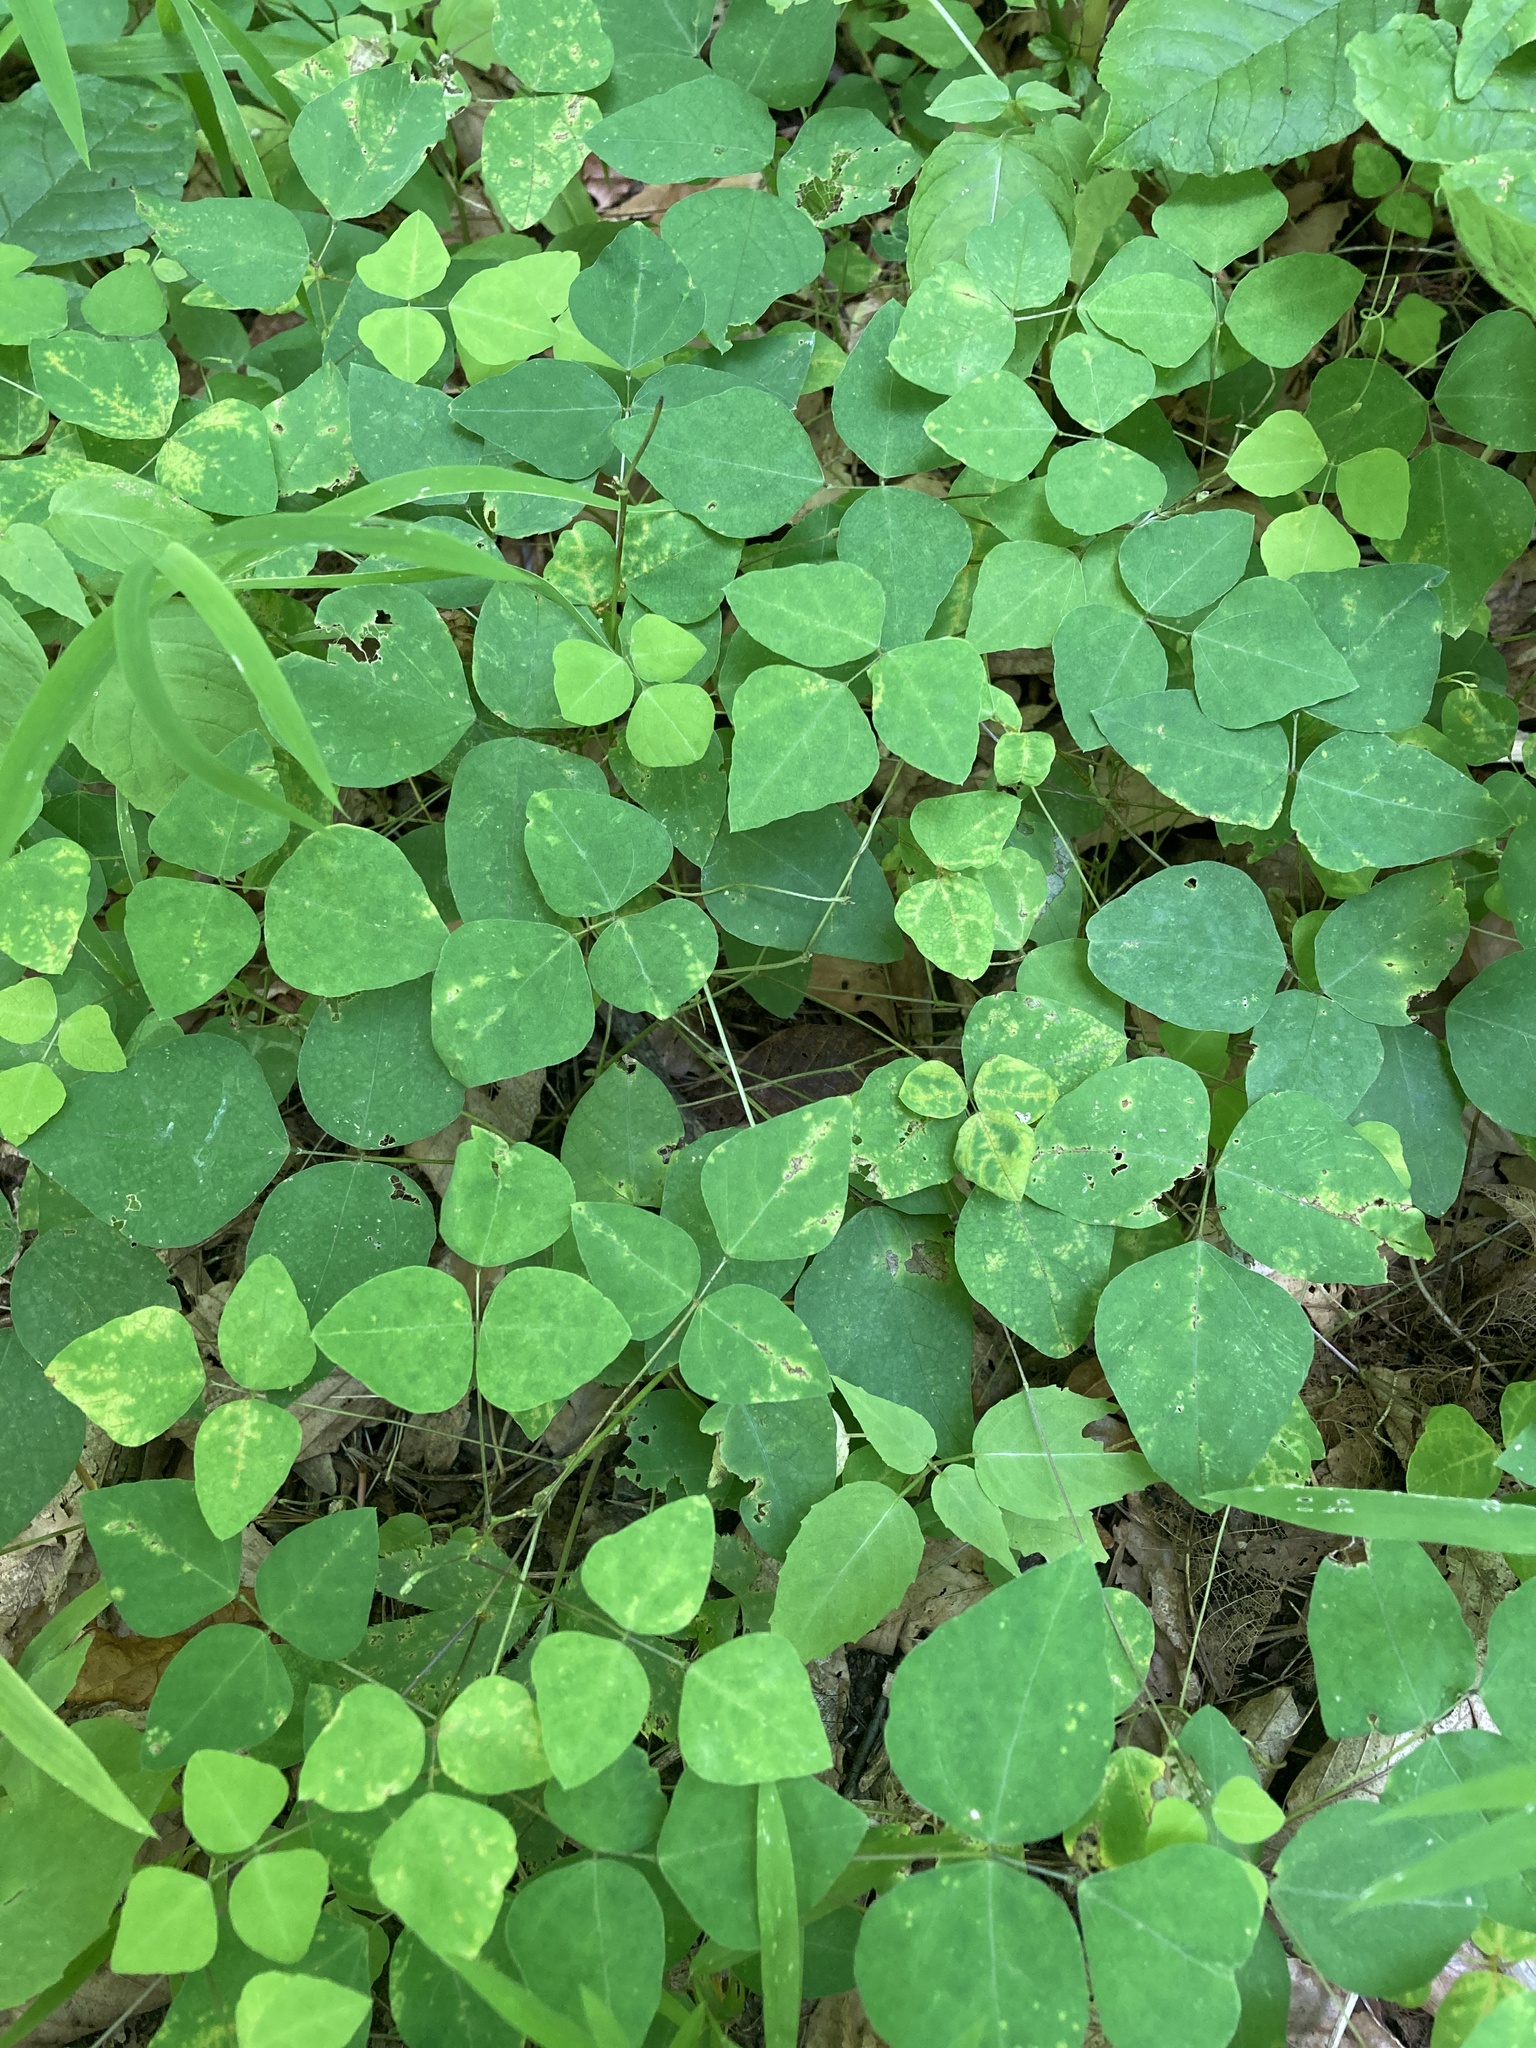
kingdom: Plantae
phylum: Tracheophyta
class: Magnoliopsida
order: Fabales
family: Fabaceae
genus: Amphicarpaea
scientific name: Amphicarpaea bracteata
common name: American hog peanut
